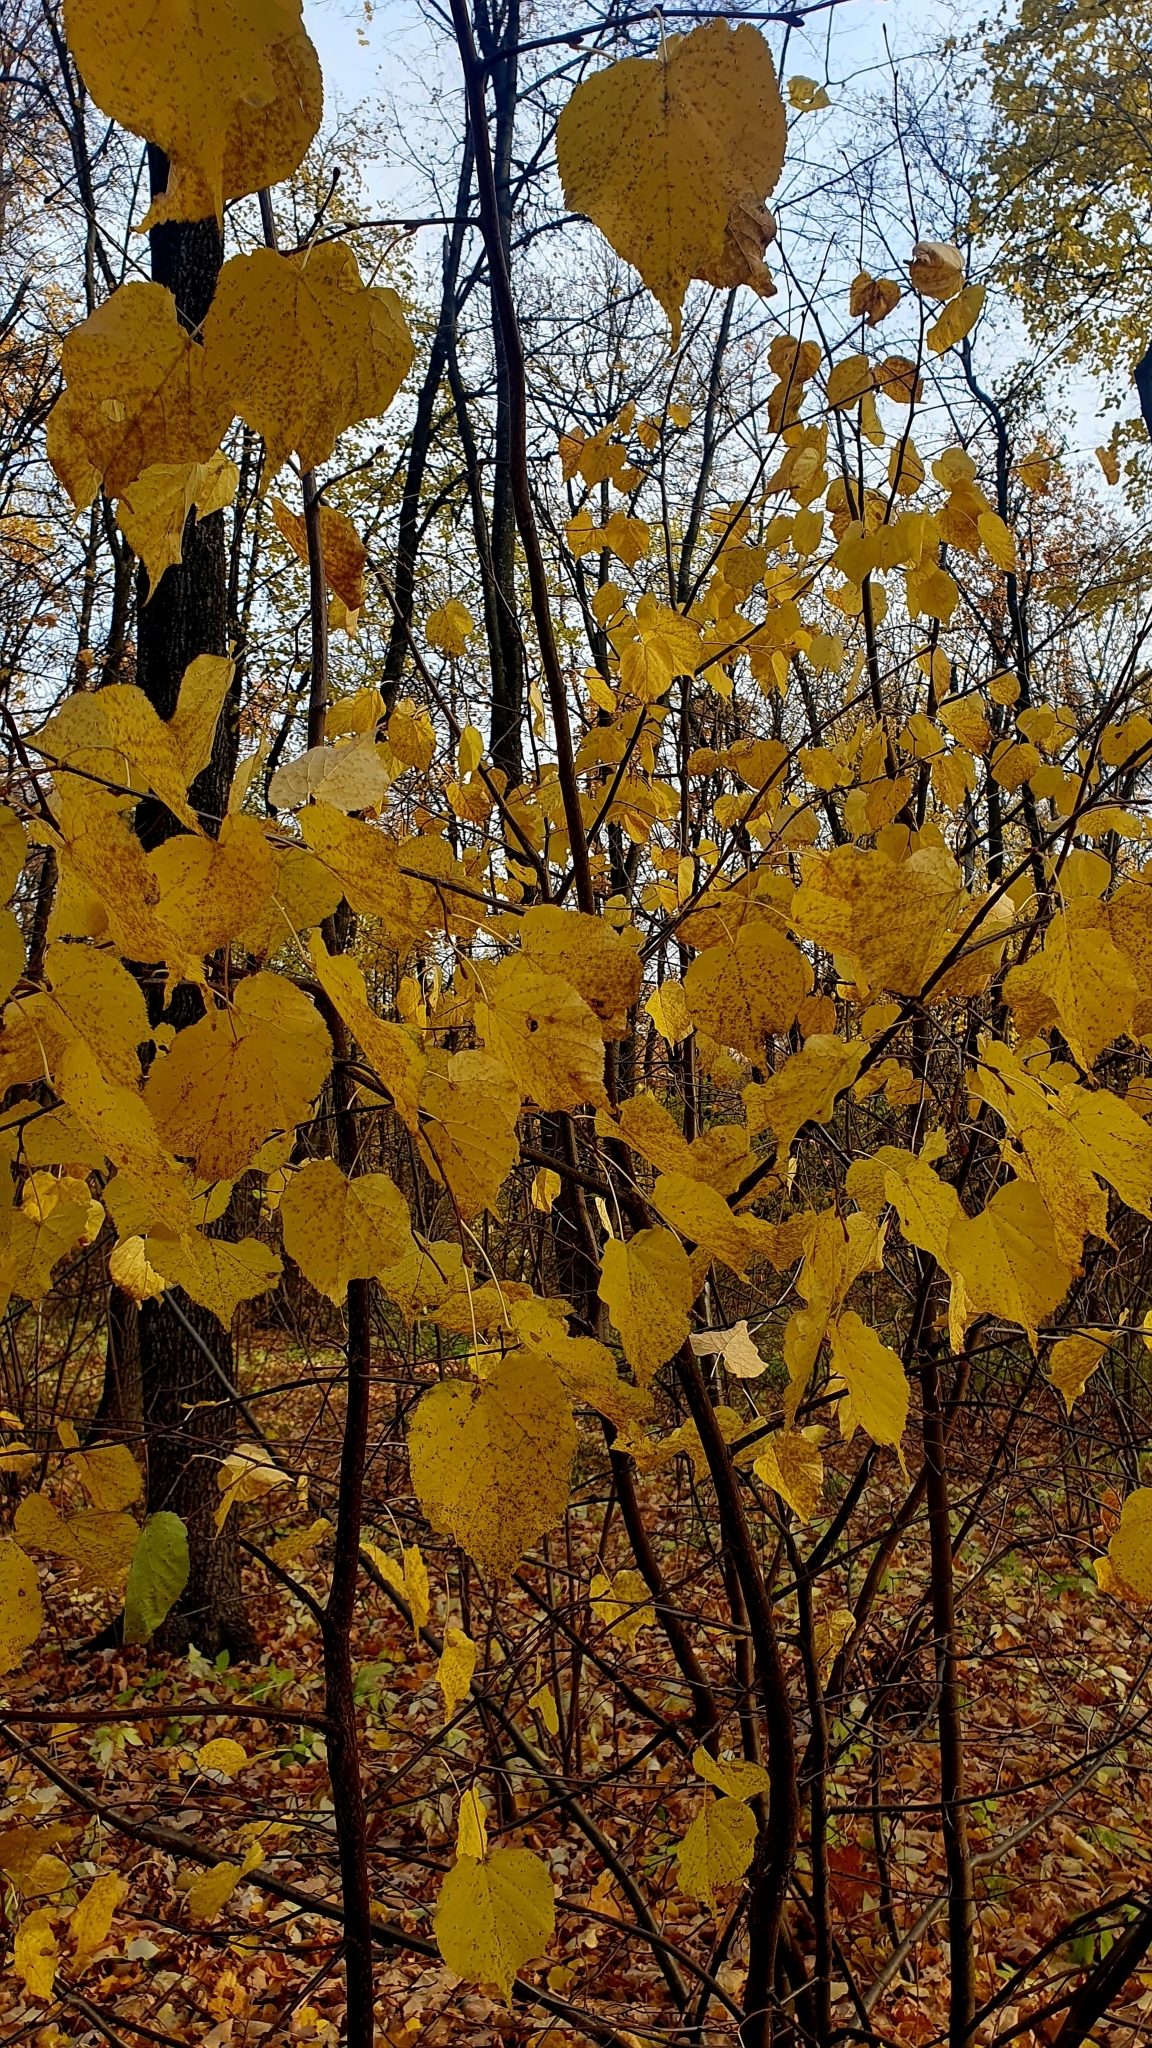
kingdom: Plantae
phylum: Tracheophyta
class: Magnoliopsida
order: Malvales
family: Malvaceae
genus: Tilia
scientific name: Tilia cordata
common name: Small-leaved lime
